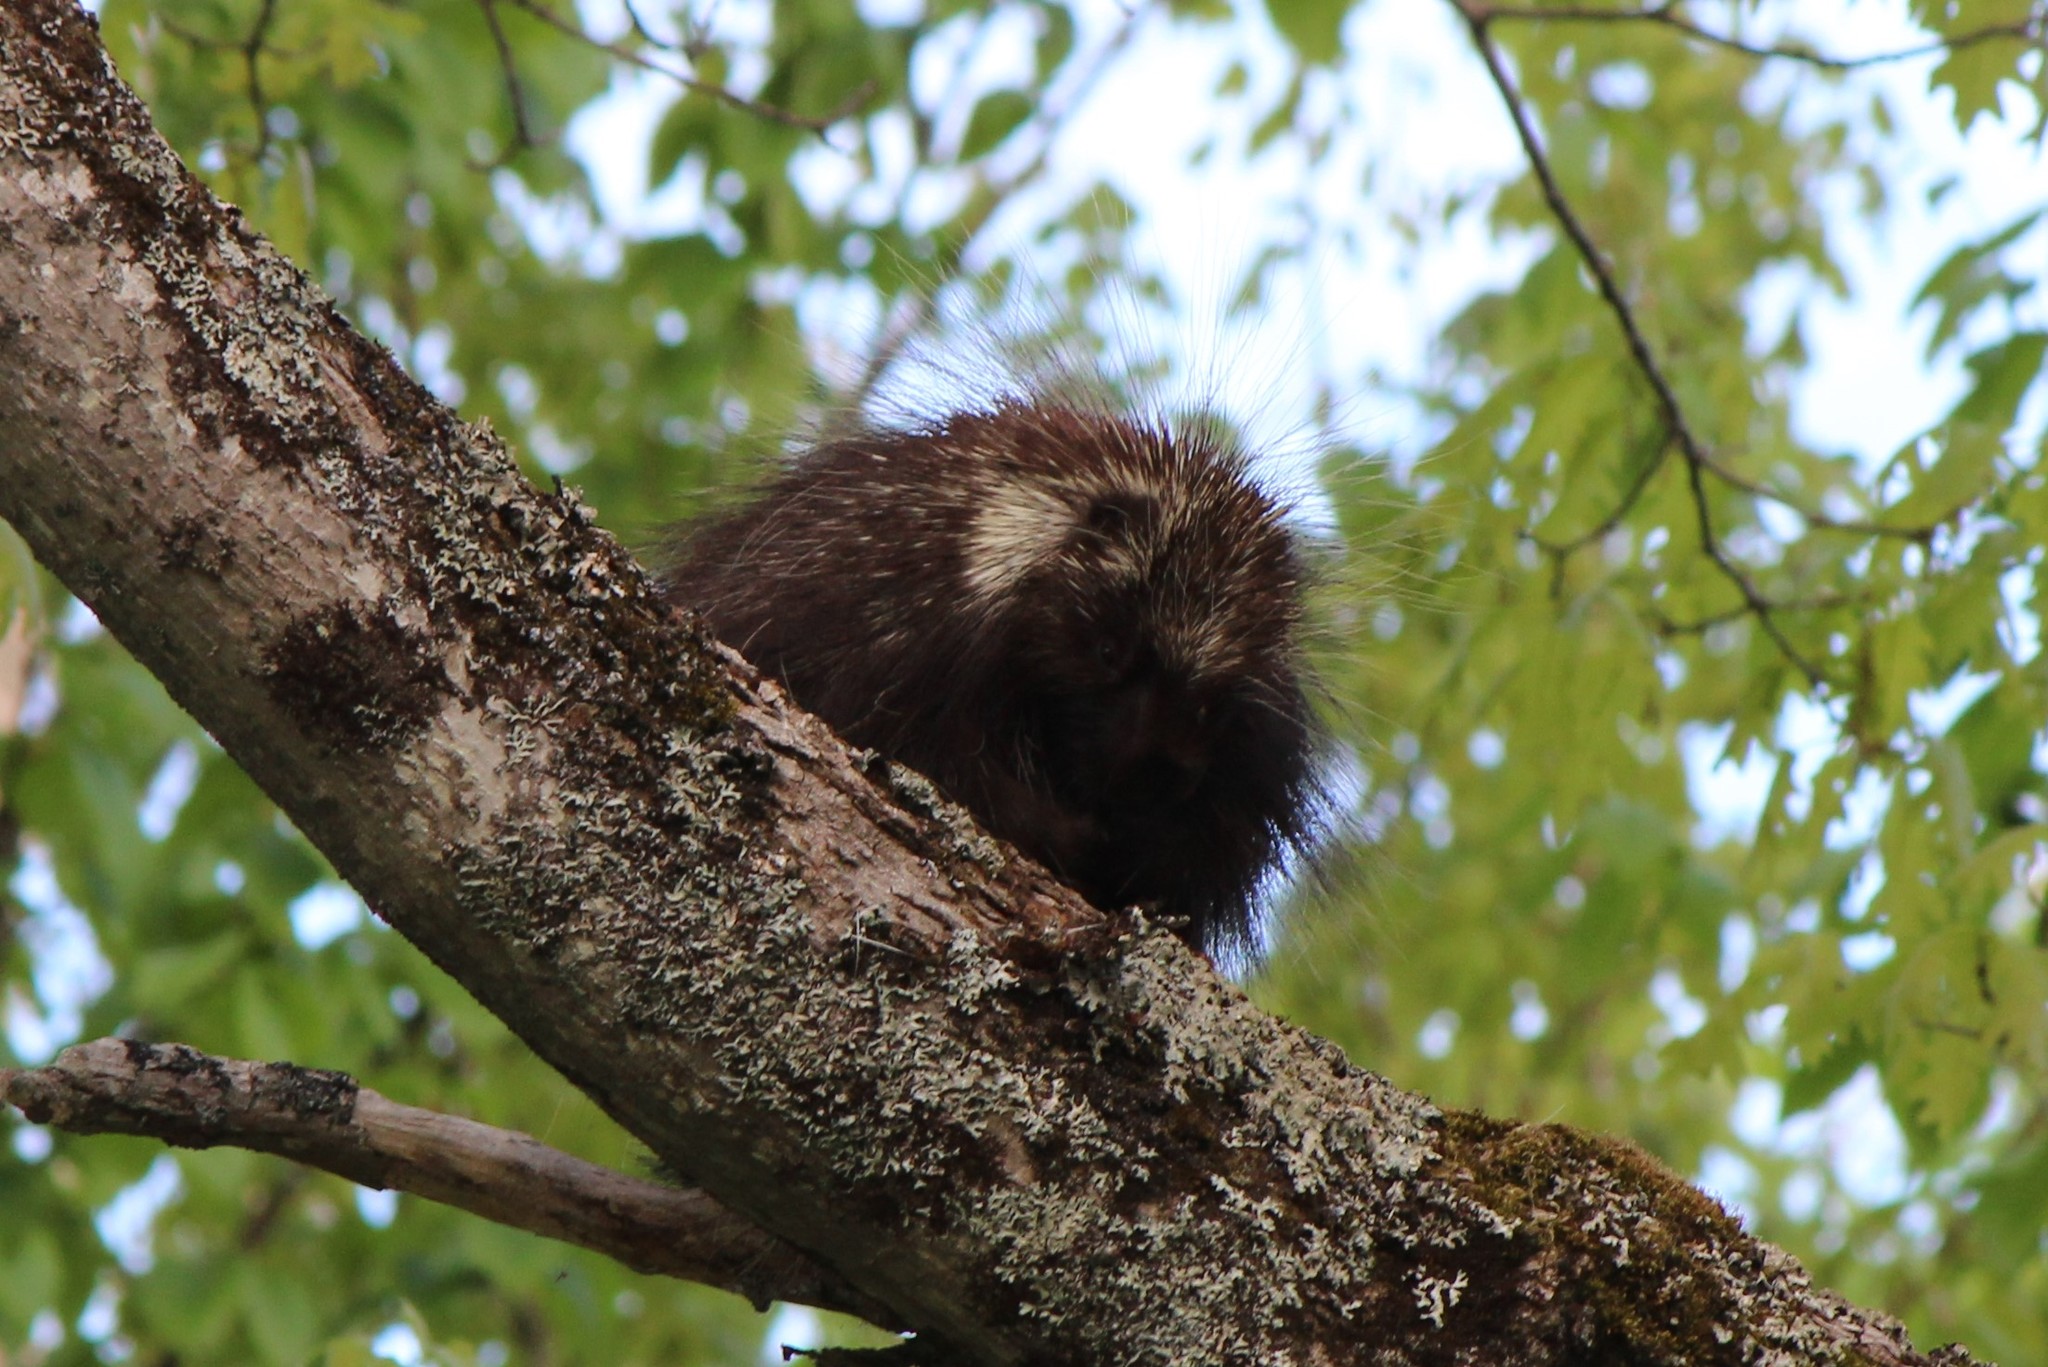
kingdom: Animalia
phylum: Chordata
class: Mammalia
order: Rodentia
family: Erethizontidae
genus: Erethizon
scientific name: Erethizon dorsatus
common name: North american porcupine
